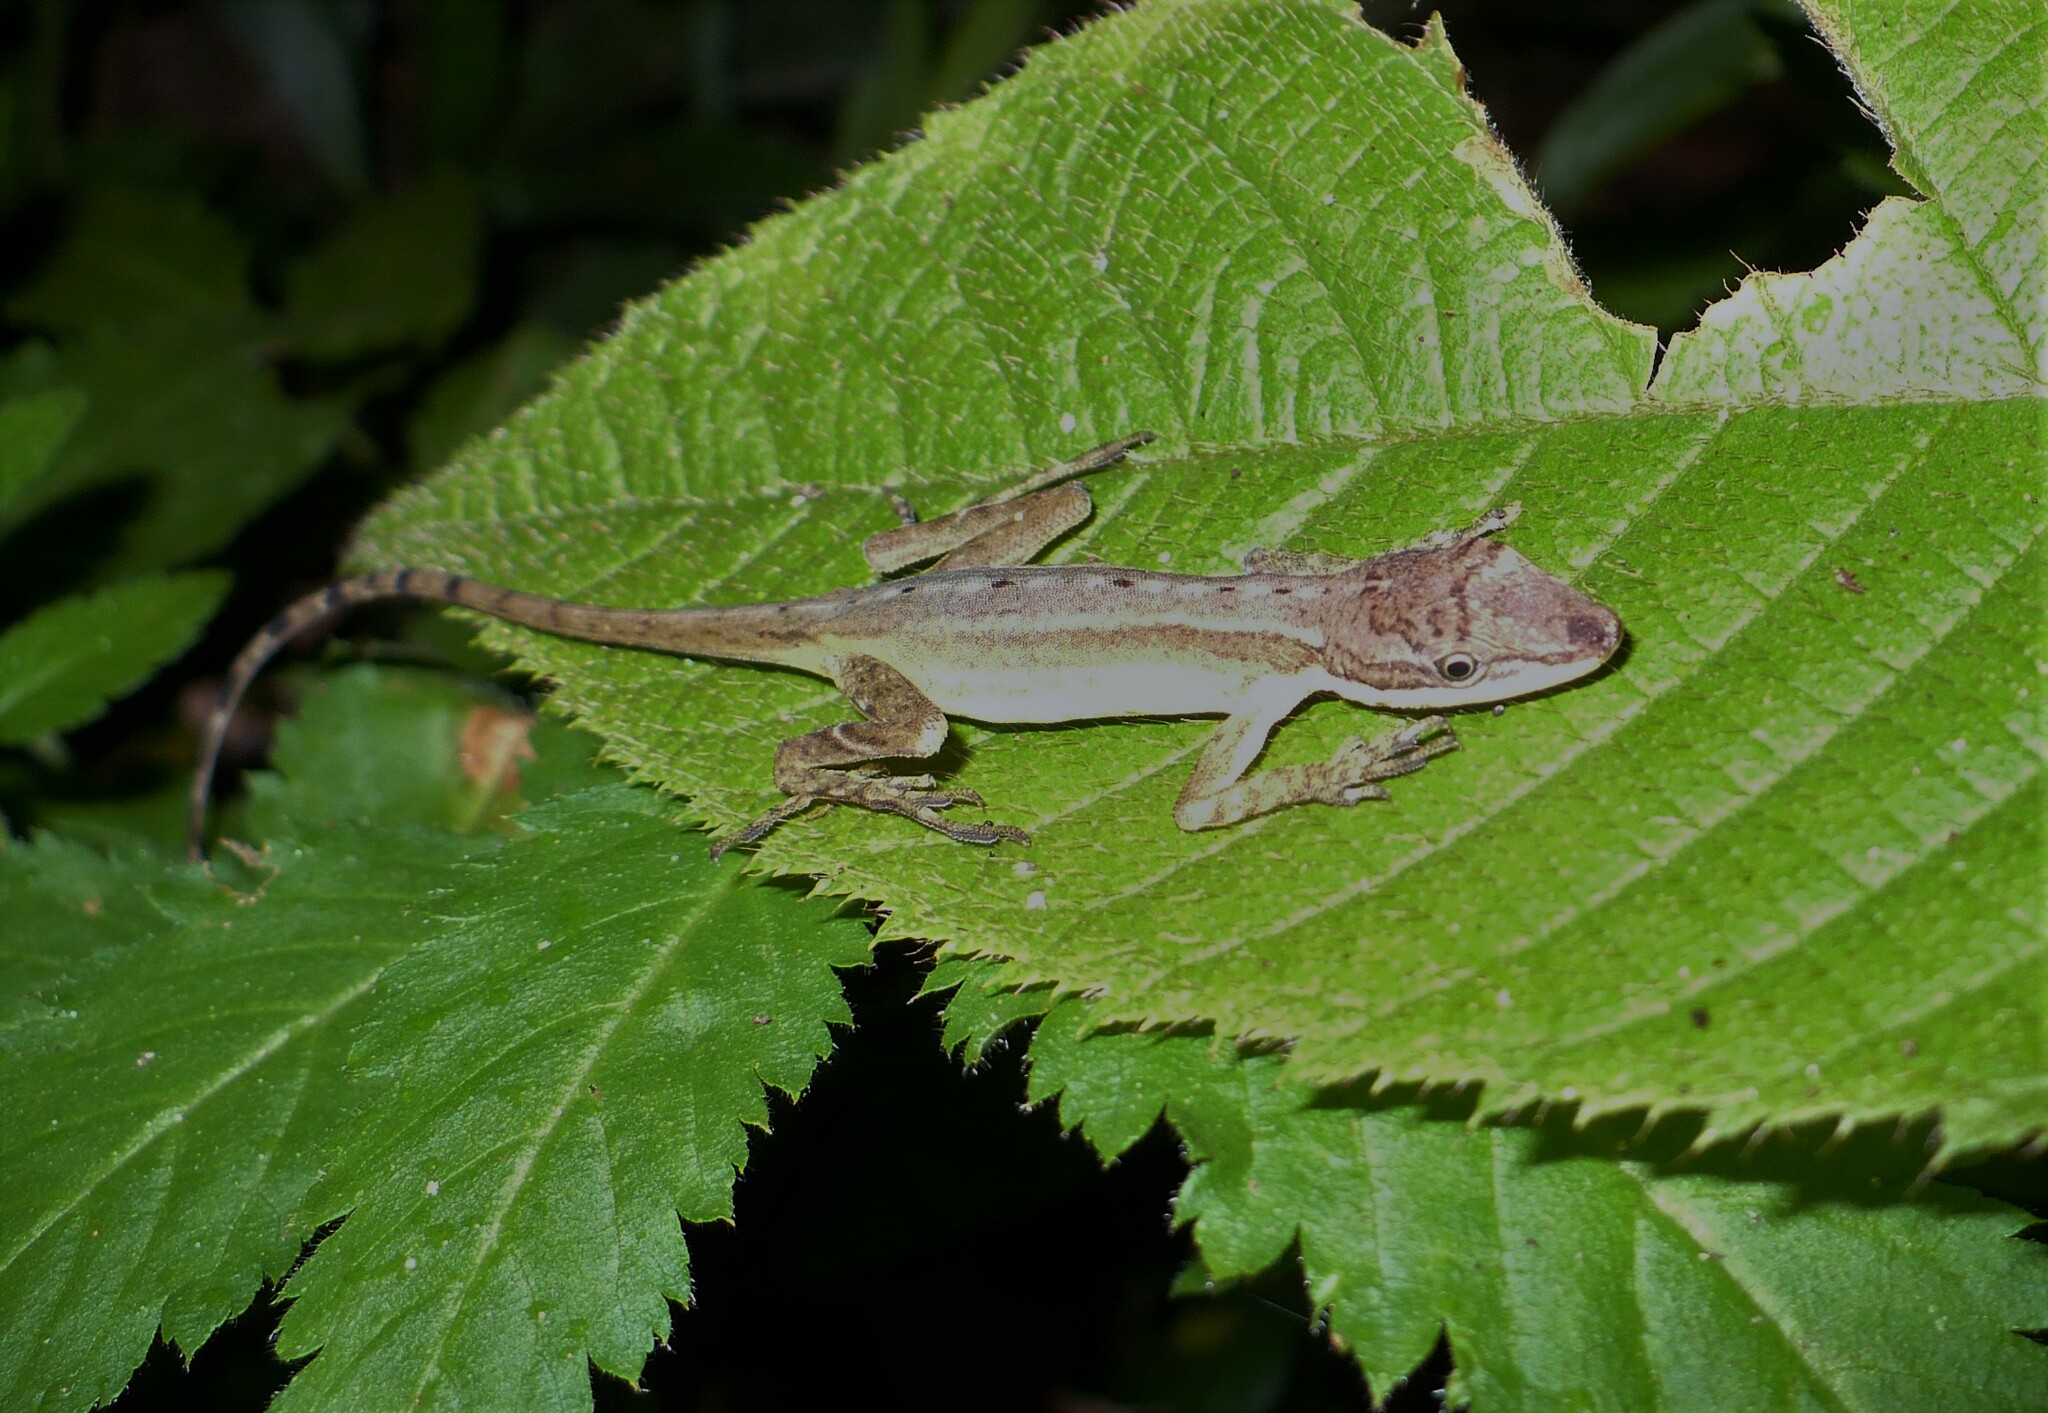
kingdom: Animalia
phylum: Chordata
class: Squamata
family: Dactyloidae
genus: Anolis
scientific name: Anolis limifrons
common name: Border anole
